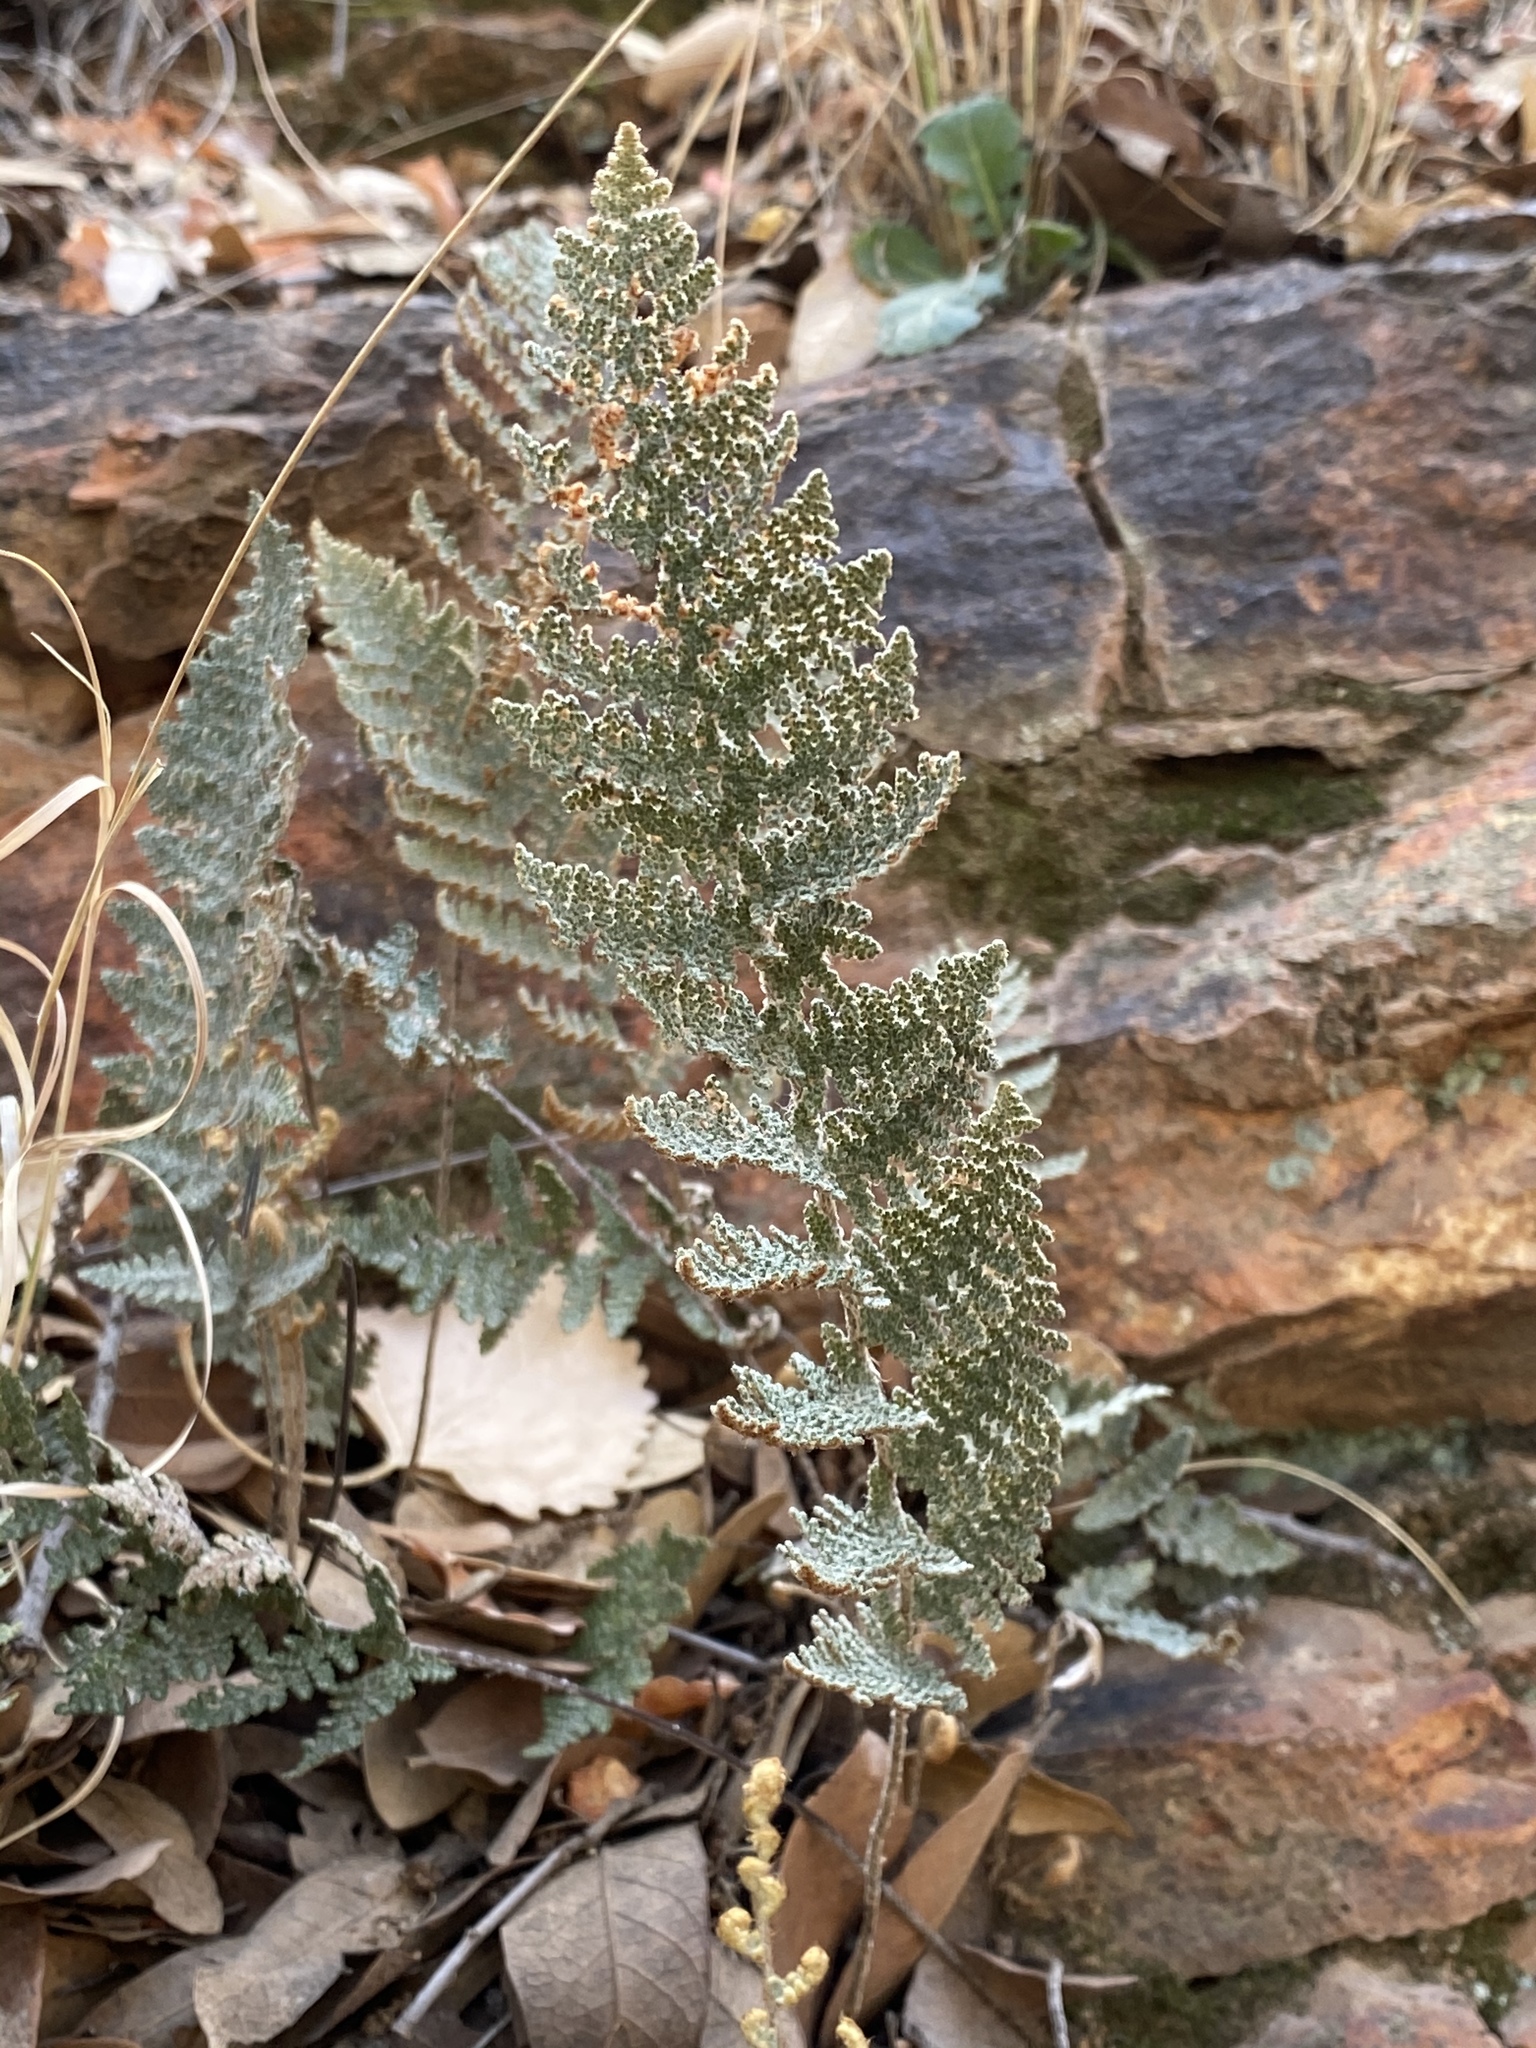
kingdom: Plantae
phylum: Tracheophyta
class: Polypodiopsida
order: Polypodiales
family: Pteridaceae
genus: Myriopteris
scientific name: Myriopteris lindheimeri
